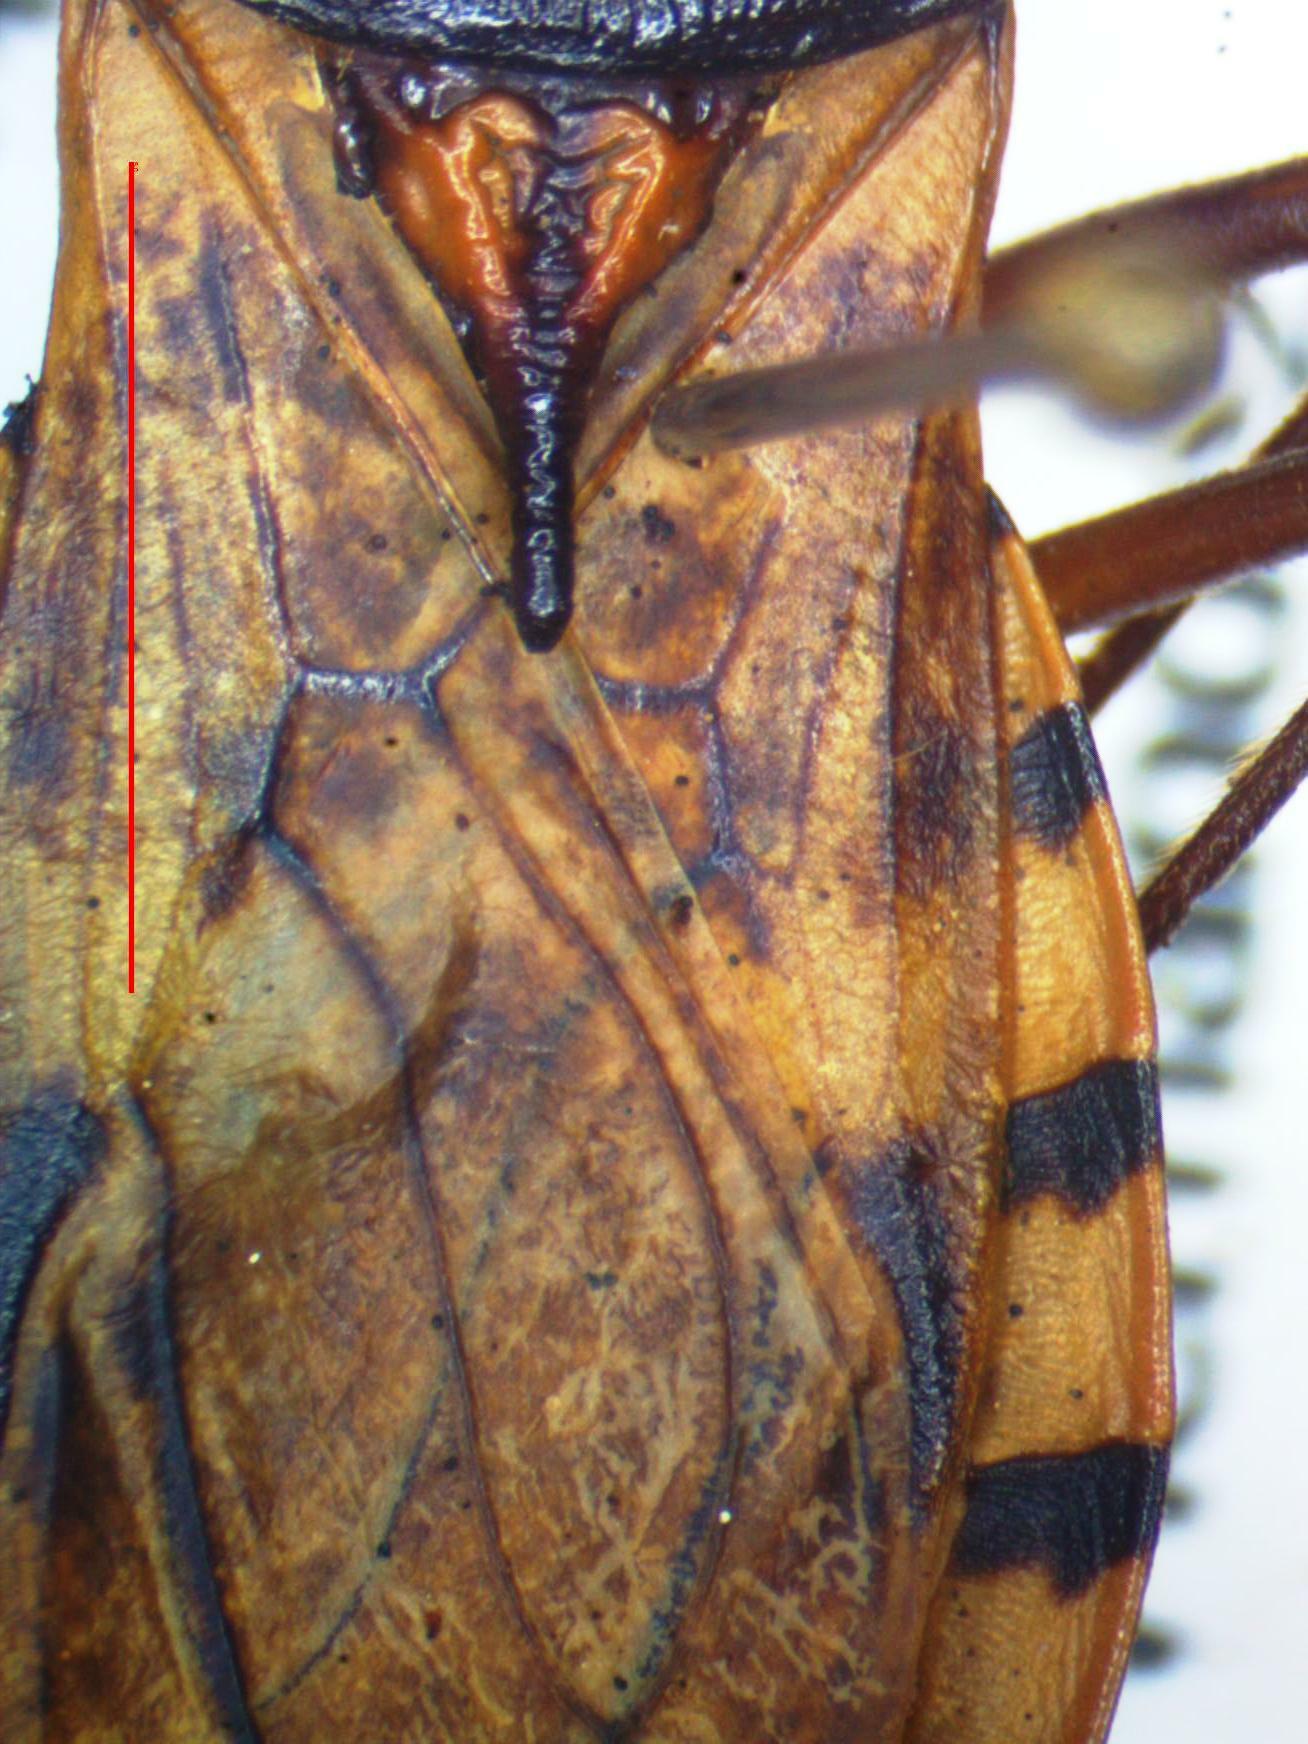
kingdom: Animalia
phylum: Arthropoda
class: Insecta
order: Hemiptera
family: Reduviidae
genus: Panstrongylus
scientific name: Panstrongylus geniculatus
